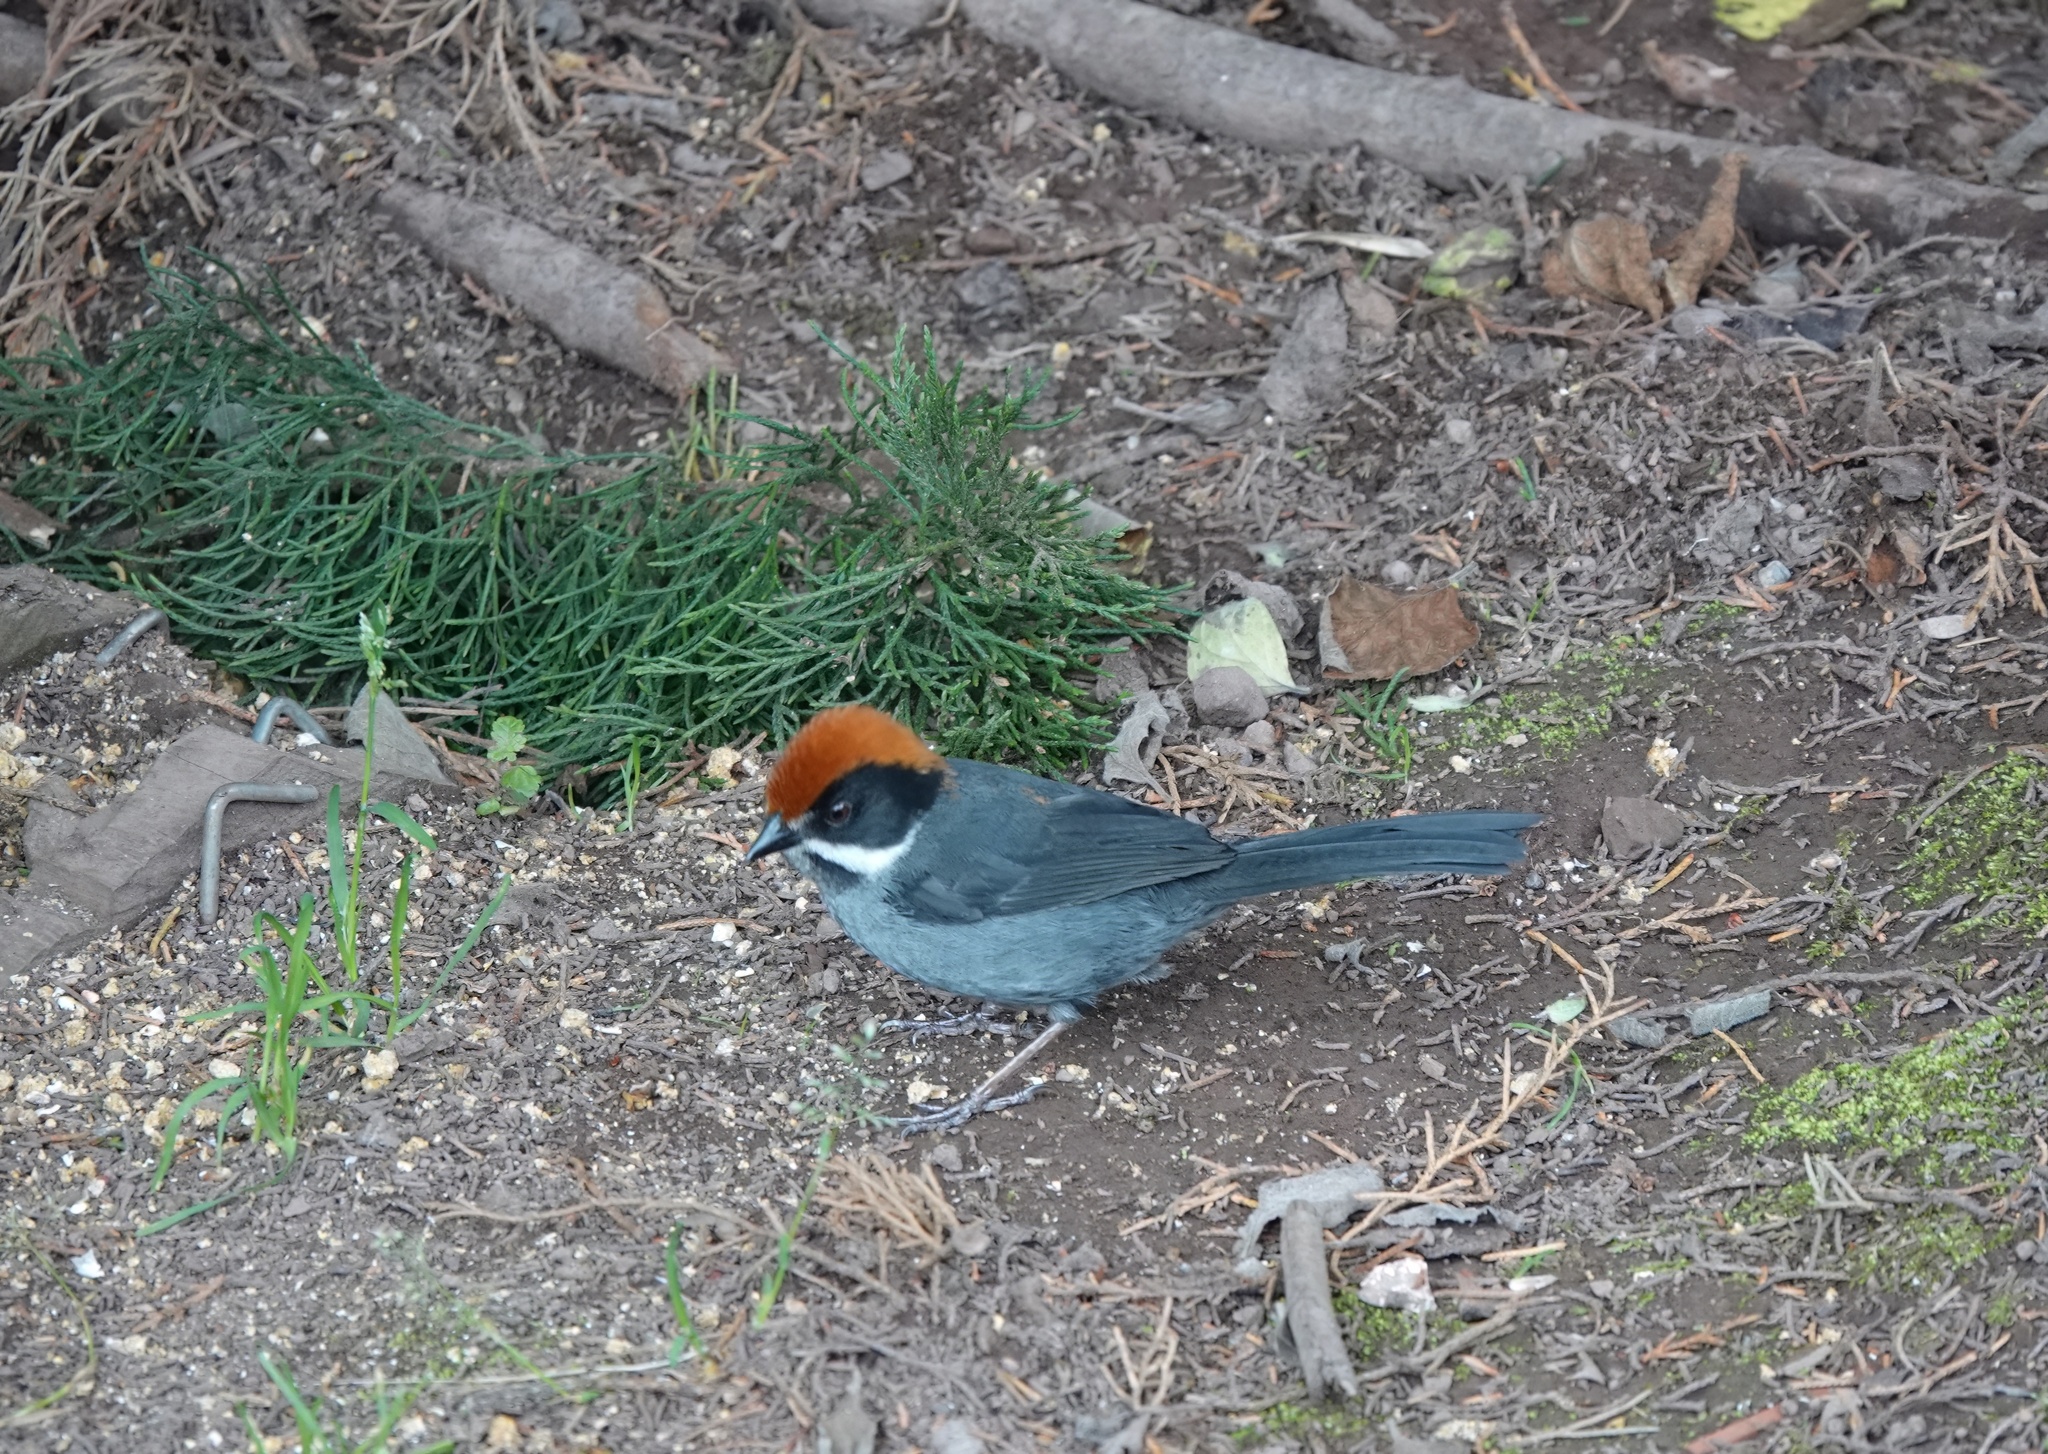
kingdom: Animalia
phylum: Chordata
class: Aves
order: Passeriformes
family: Passerellidae
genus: Atlapetes
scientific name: Atlapetes schistaceus
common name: Slaty brushfinch
